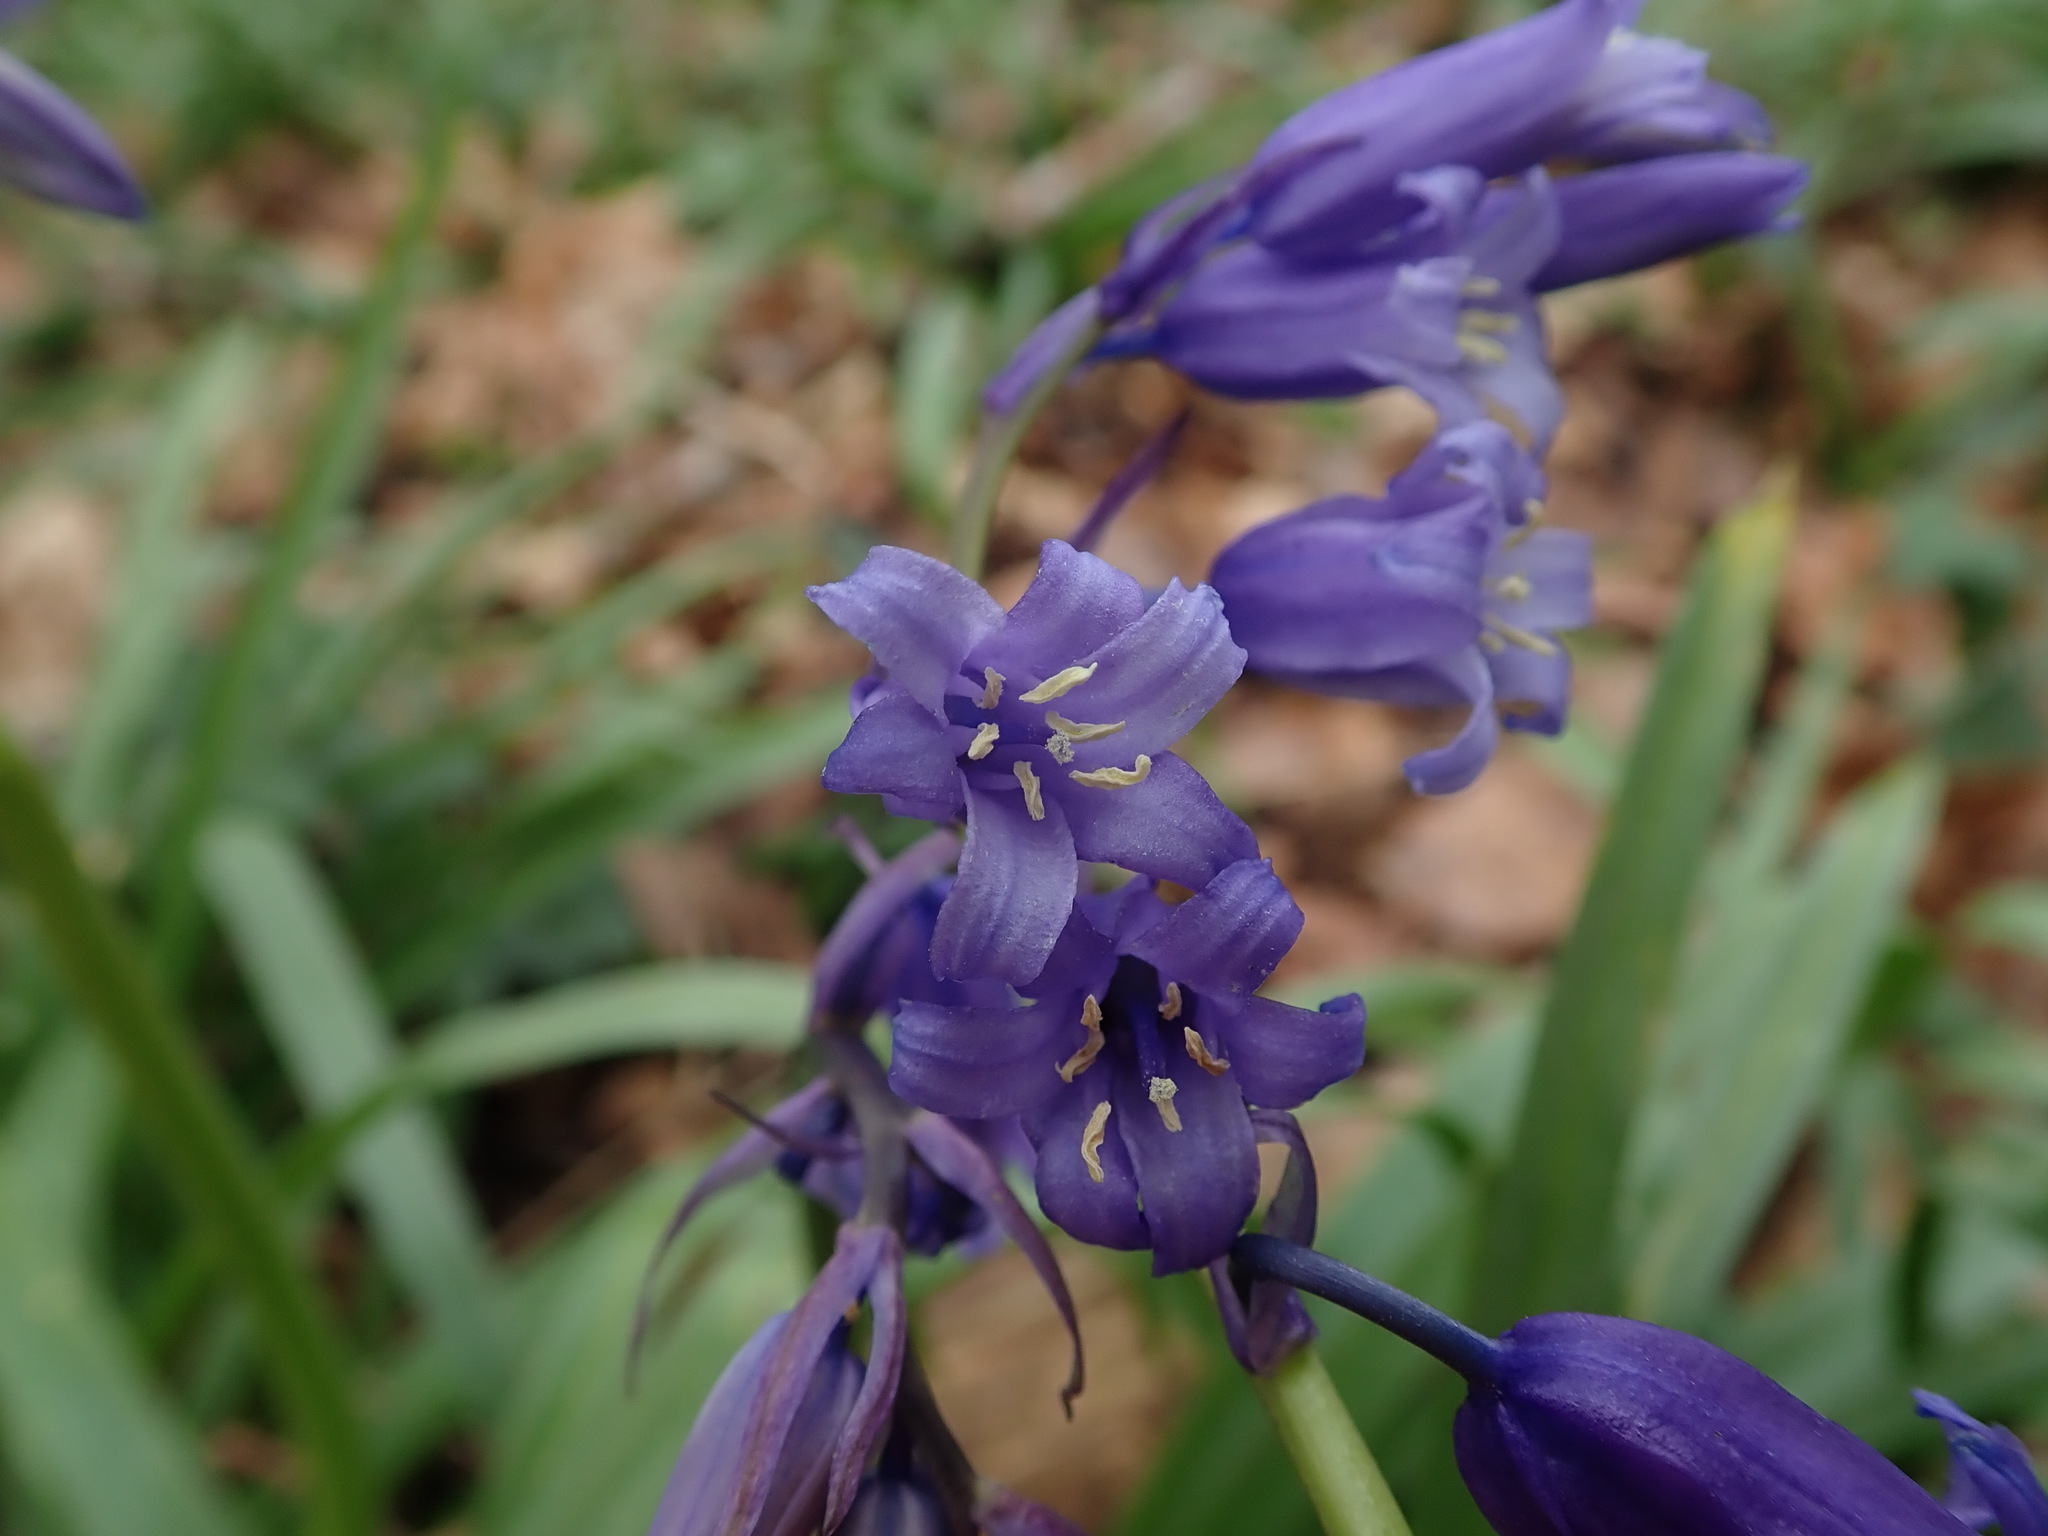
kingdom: Plantae
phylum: Tracheophyta
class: Liliopsida
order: Asparagales
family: Asparagaceae
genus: Hyacinthoides
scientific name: Hyacinthoides non-scripta
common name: Bluebell
